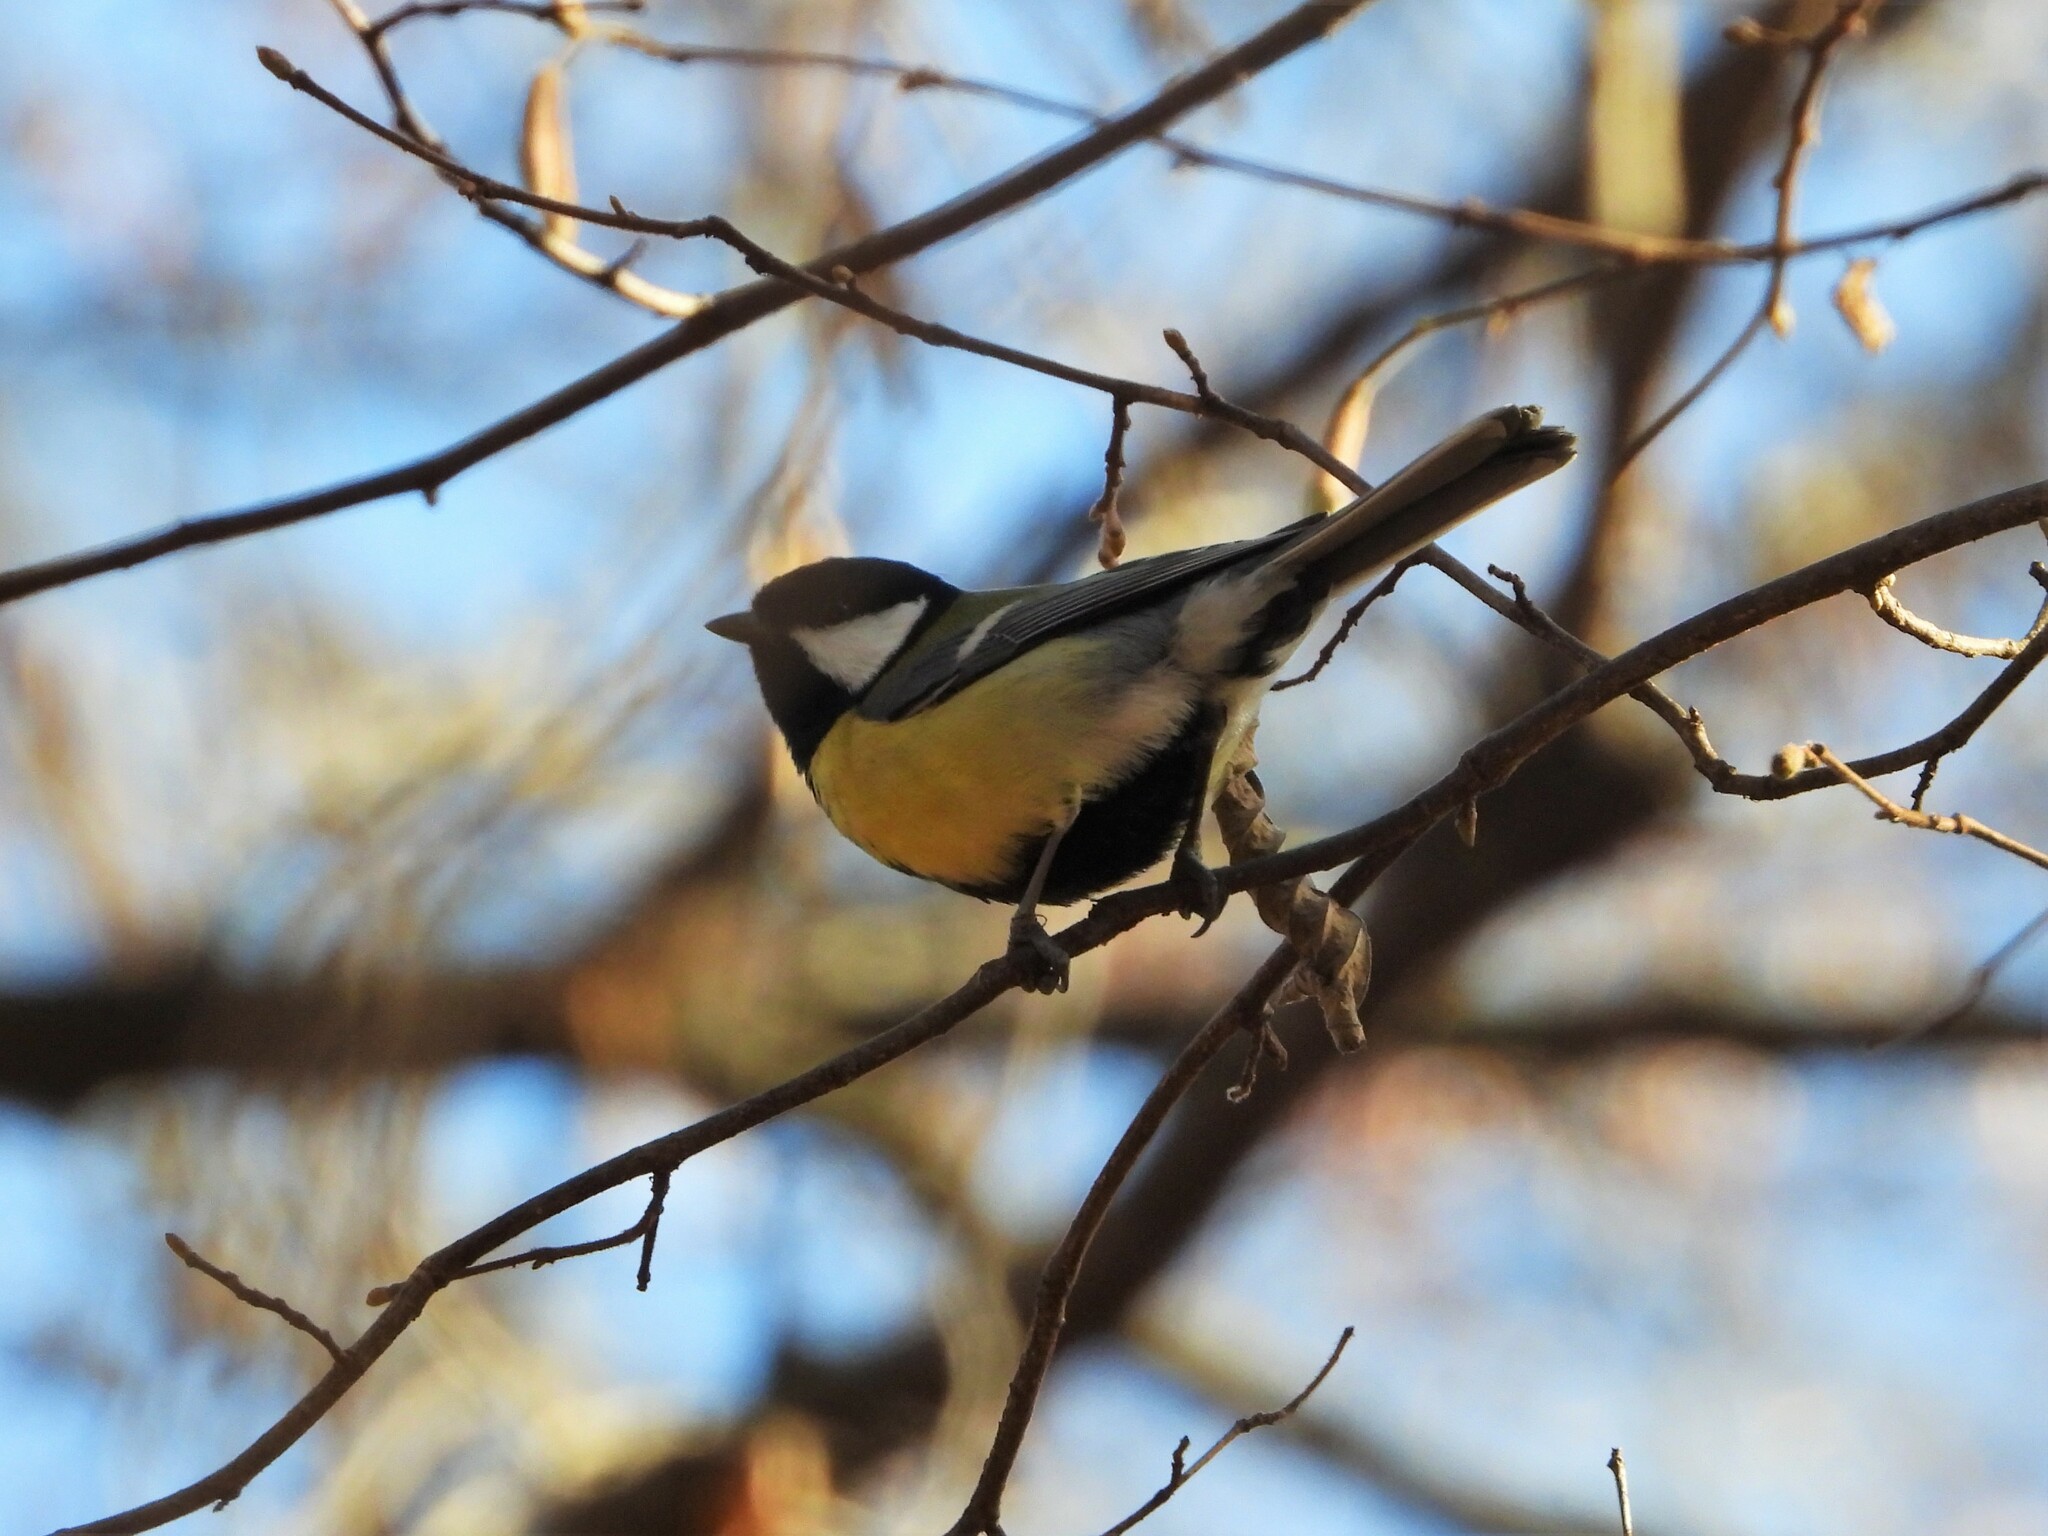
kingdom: Animalia
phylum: Chordata
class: Aves
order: Passeriformes
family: Paridae
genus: Parus
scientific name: Parus major
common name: Great tit
